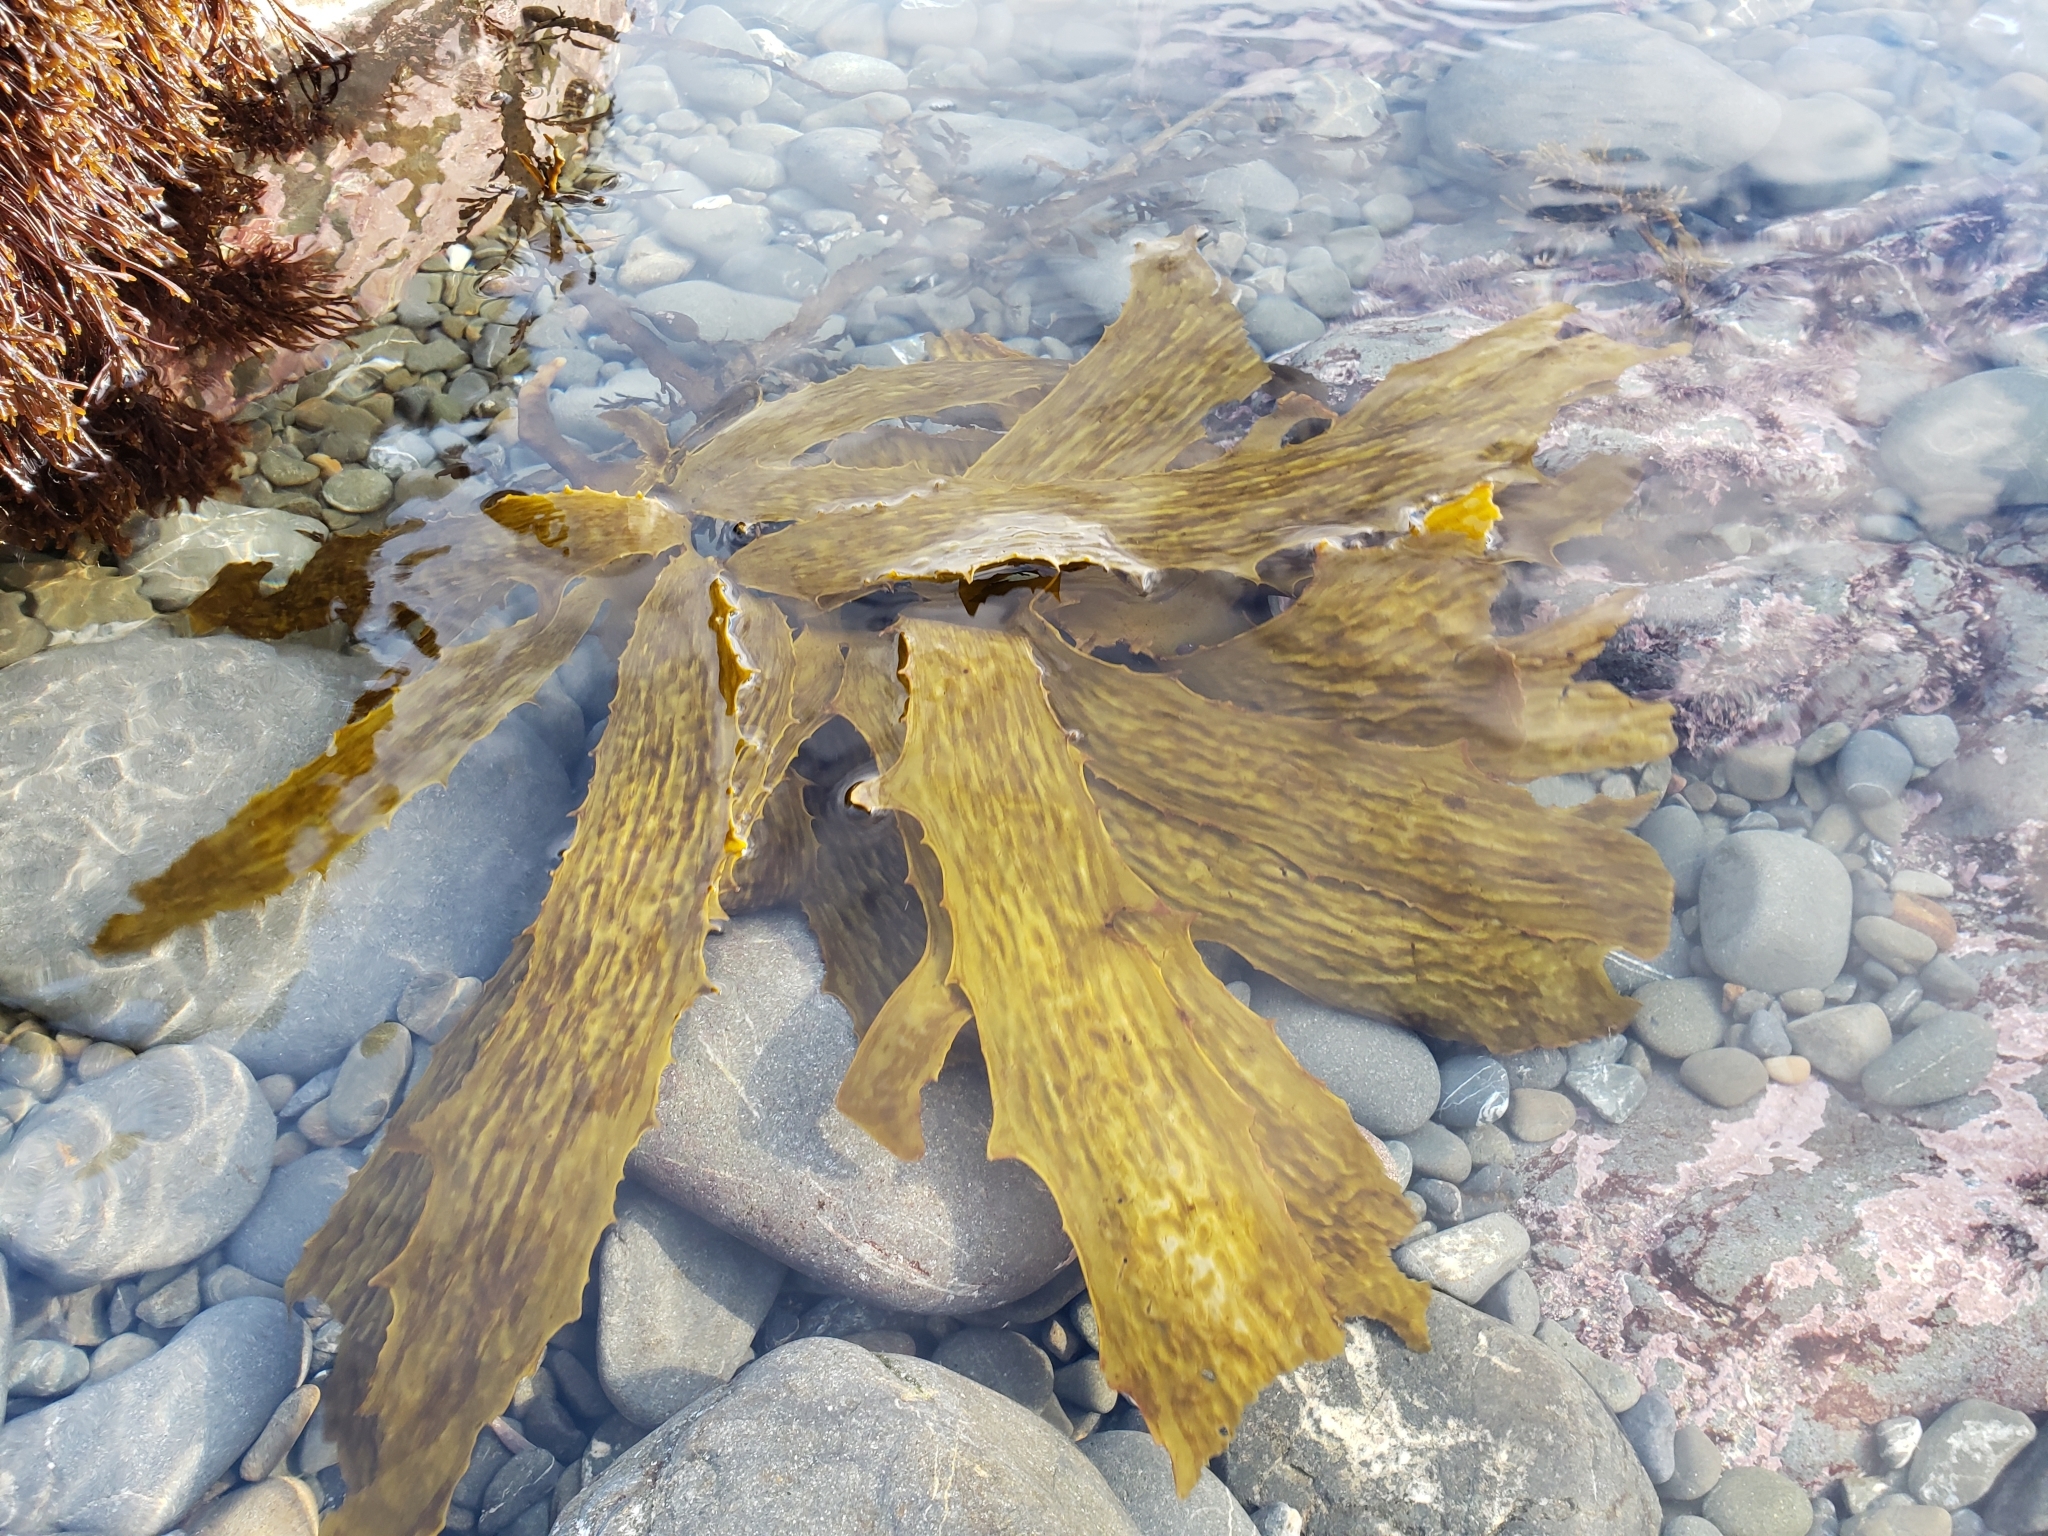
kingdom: Chromista
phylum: Ochrophyta
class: Phaeophyceae
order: Laminariales
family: Lessoniaceae
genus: Ecklonia
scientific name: Ecklonia radiata
